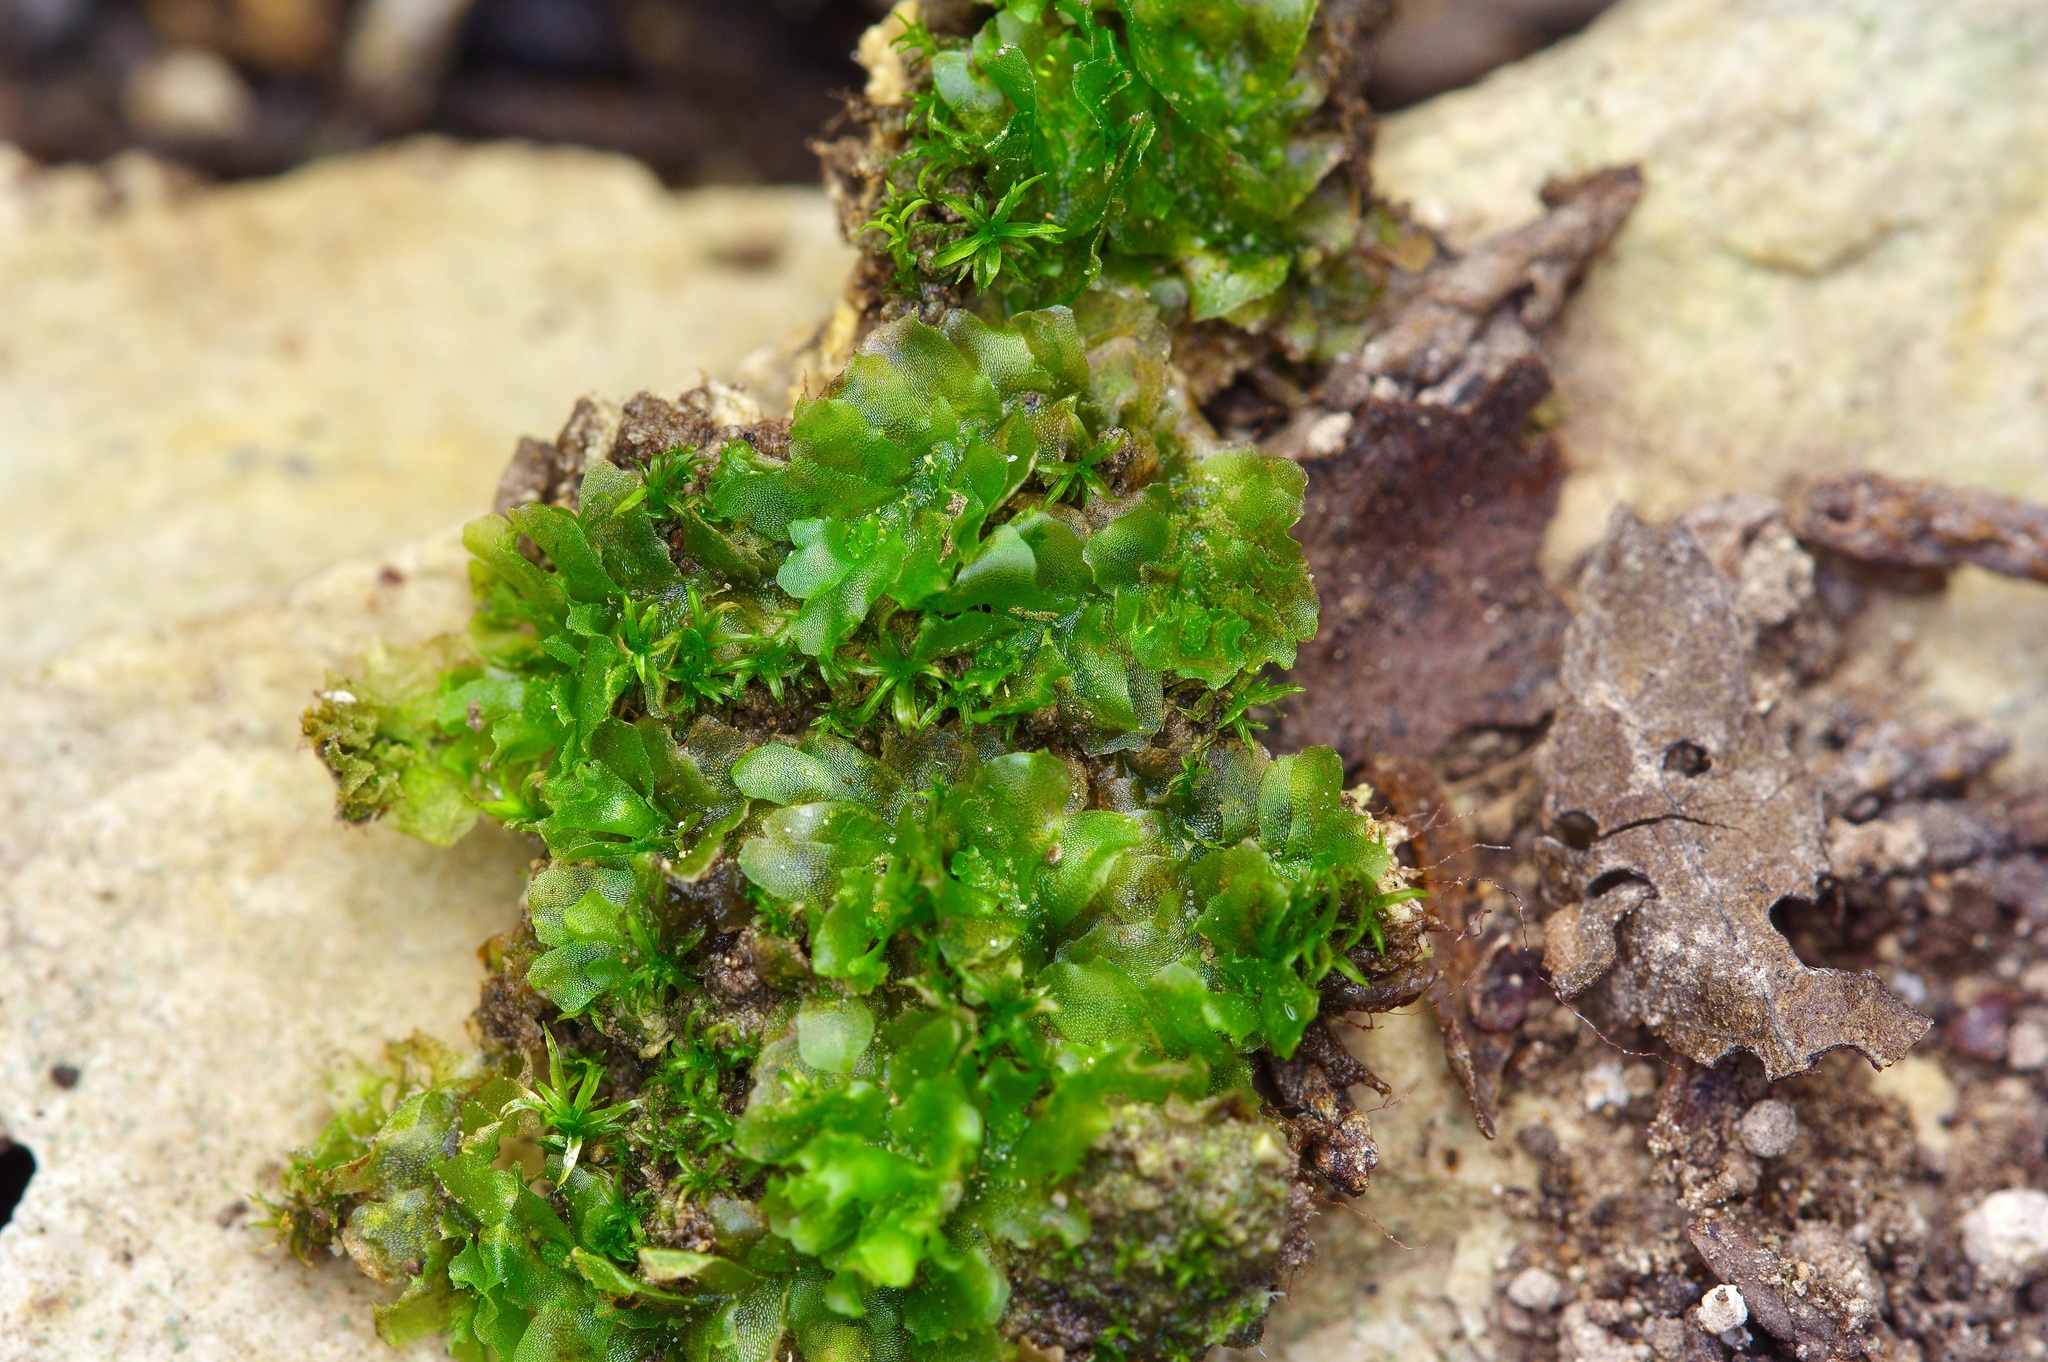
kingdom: Plantae
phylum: Marchantiophyta
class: Jungermanniopsida
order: Fossombroniales
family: Fossombroniaceae
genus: Fossombronia
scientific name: Fossombronia texana
